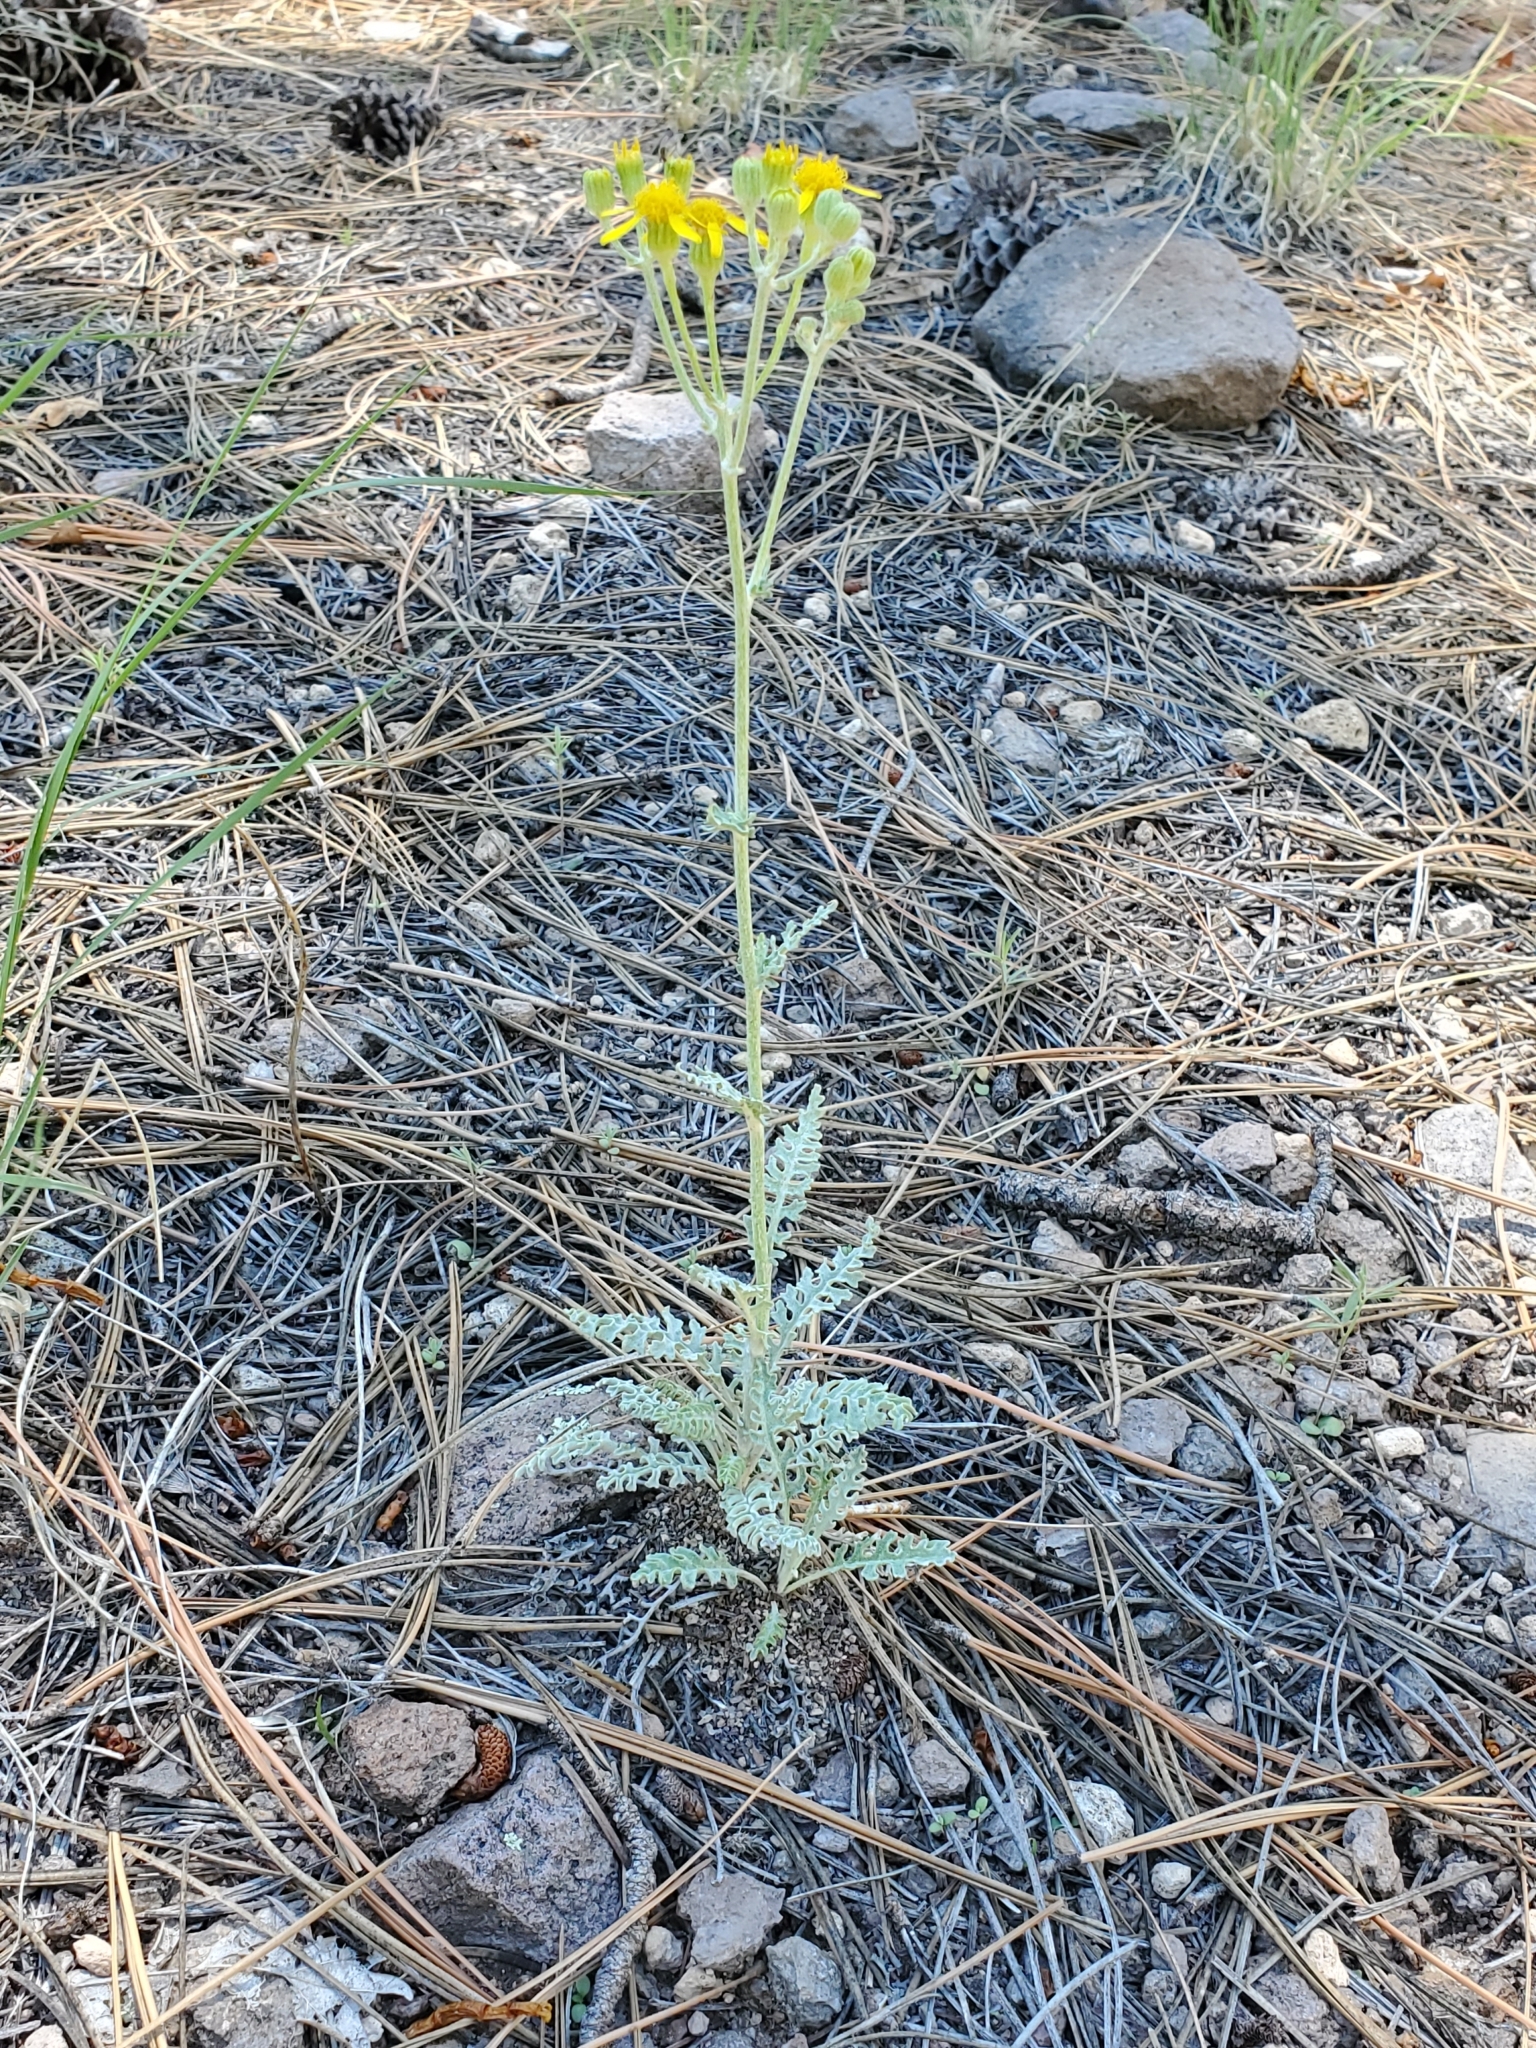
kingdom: Plantae
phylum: Tracheophyta
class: Magnoliopsida
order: Asterales
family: Asteraceae
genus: Packera
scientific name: Packera fendleri
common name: Notch-leaf butterweed
